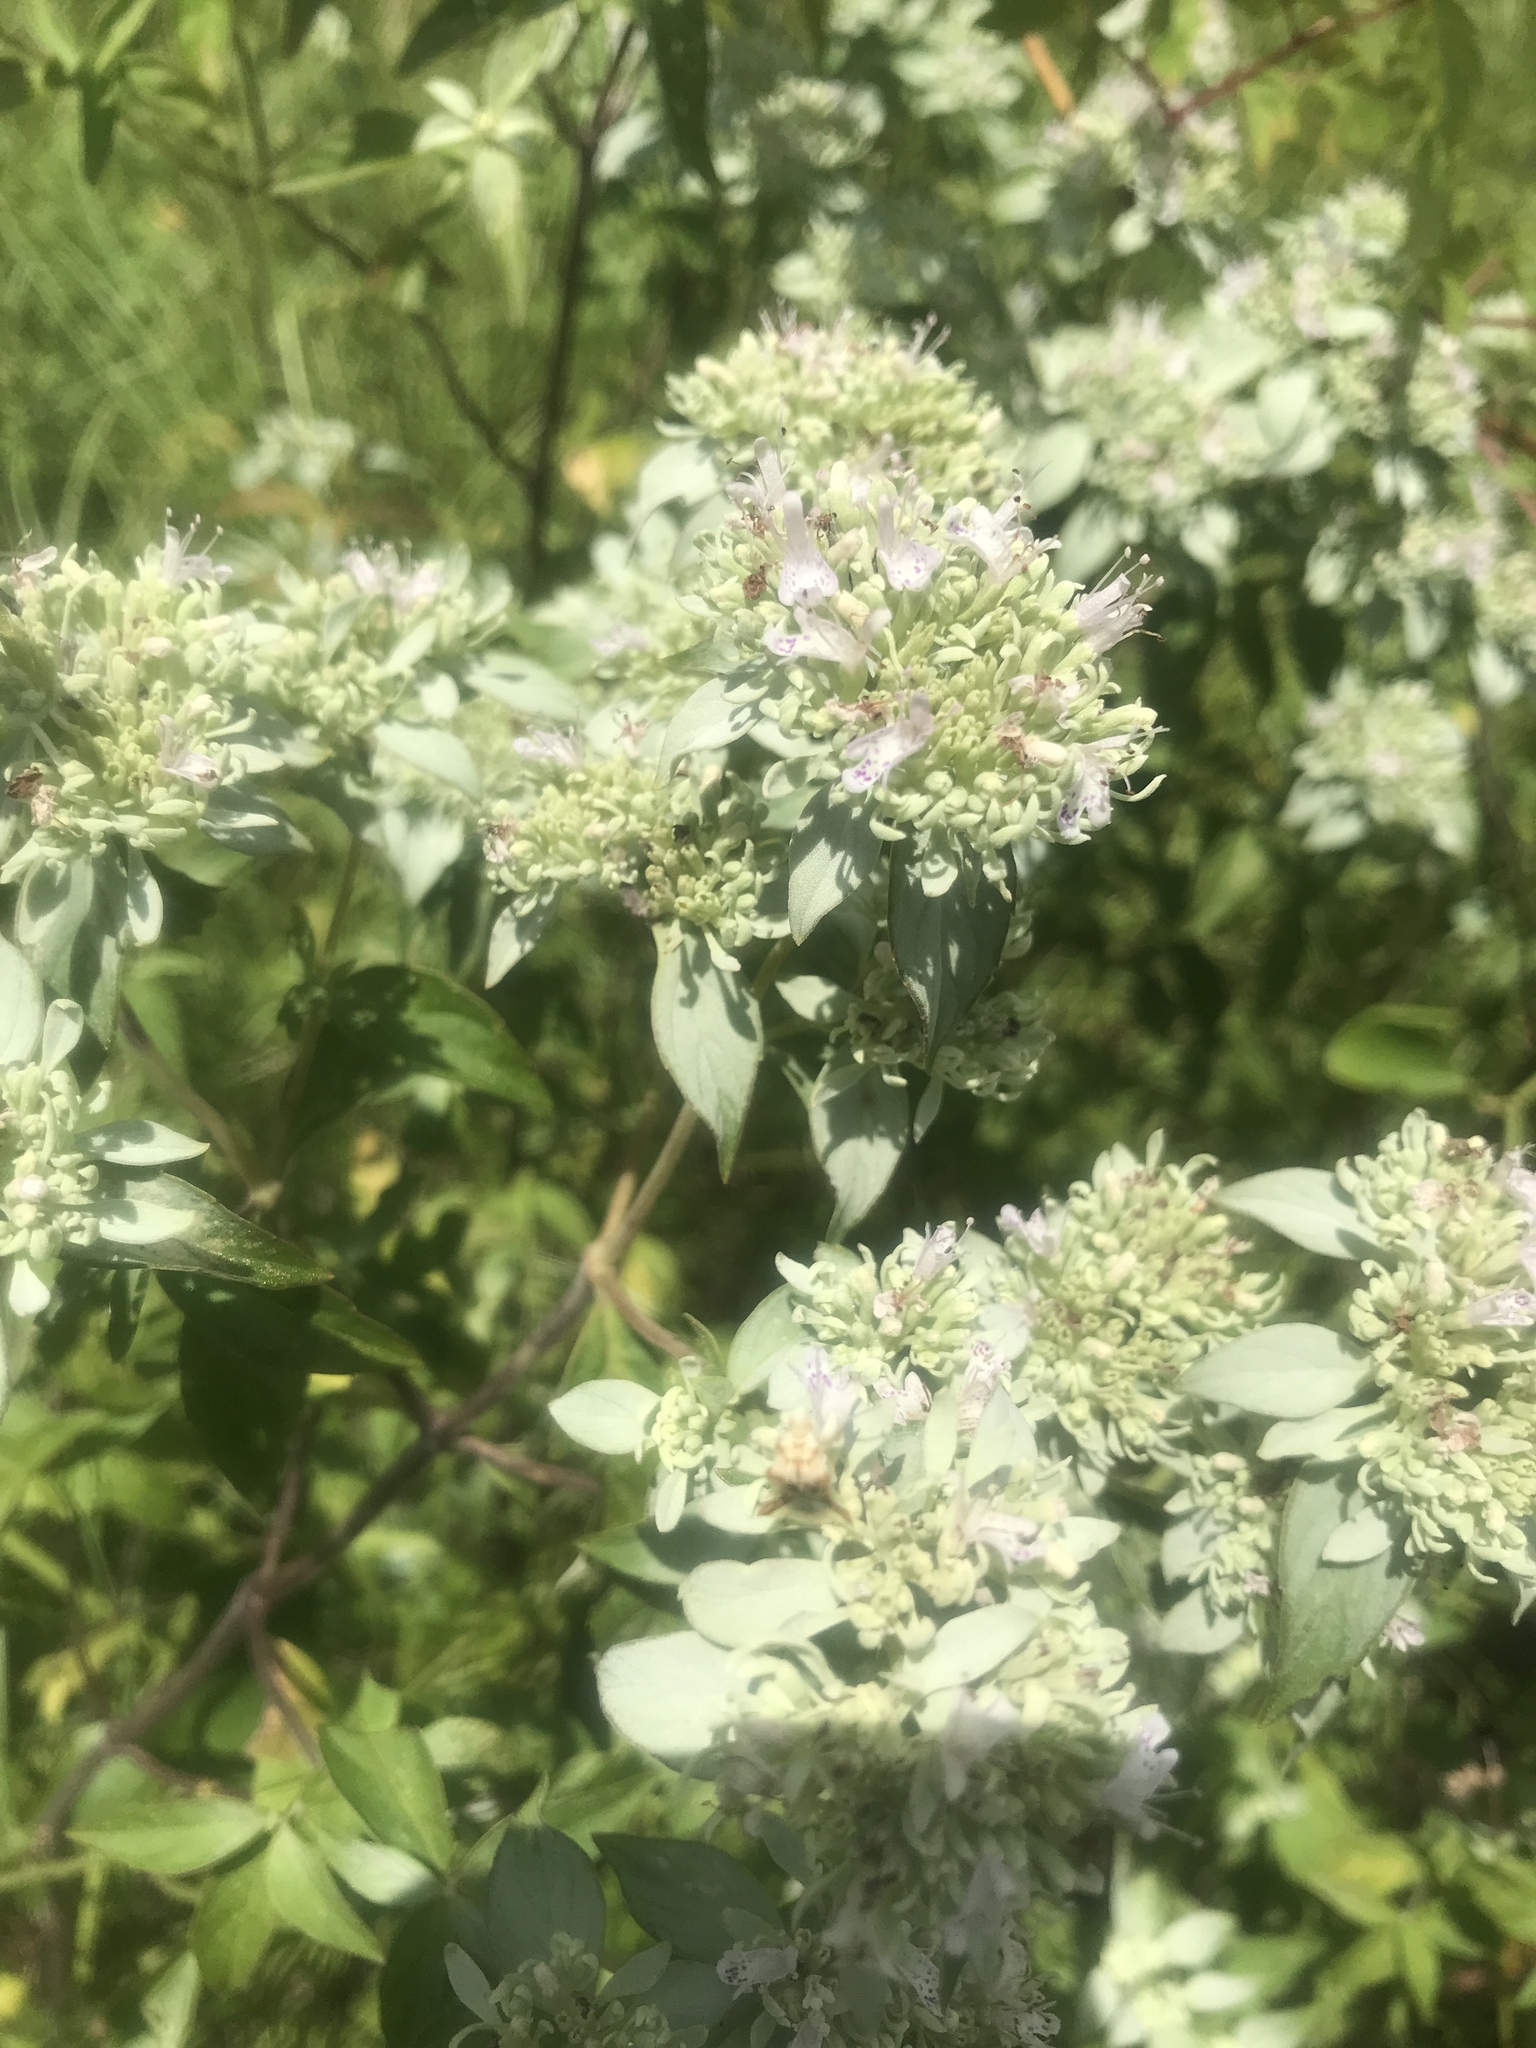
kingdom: Plantae
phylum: Tracheophyta
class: Magnoliopsida
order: Lamiales
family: Lamiaceae
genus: Pycnanthemum
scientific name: Pycnanthemum albescens
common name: White-leaf mountain-mint
